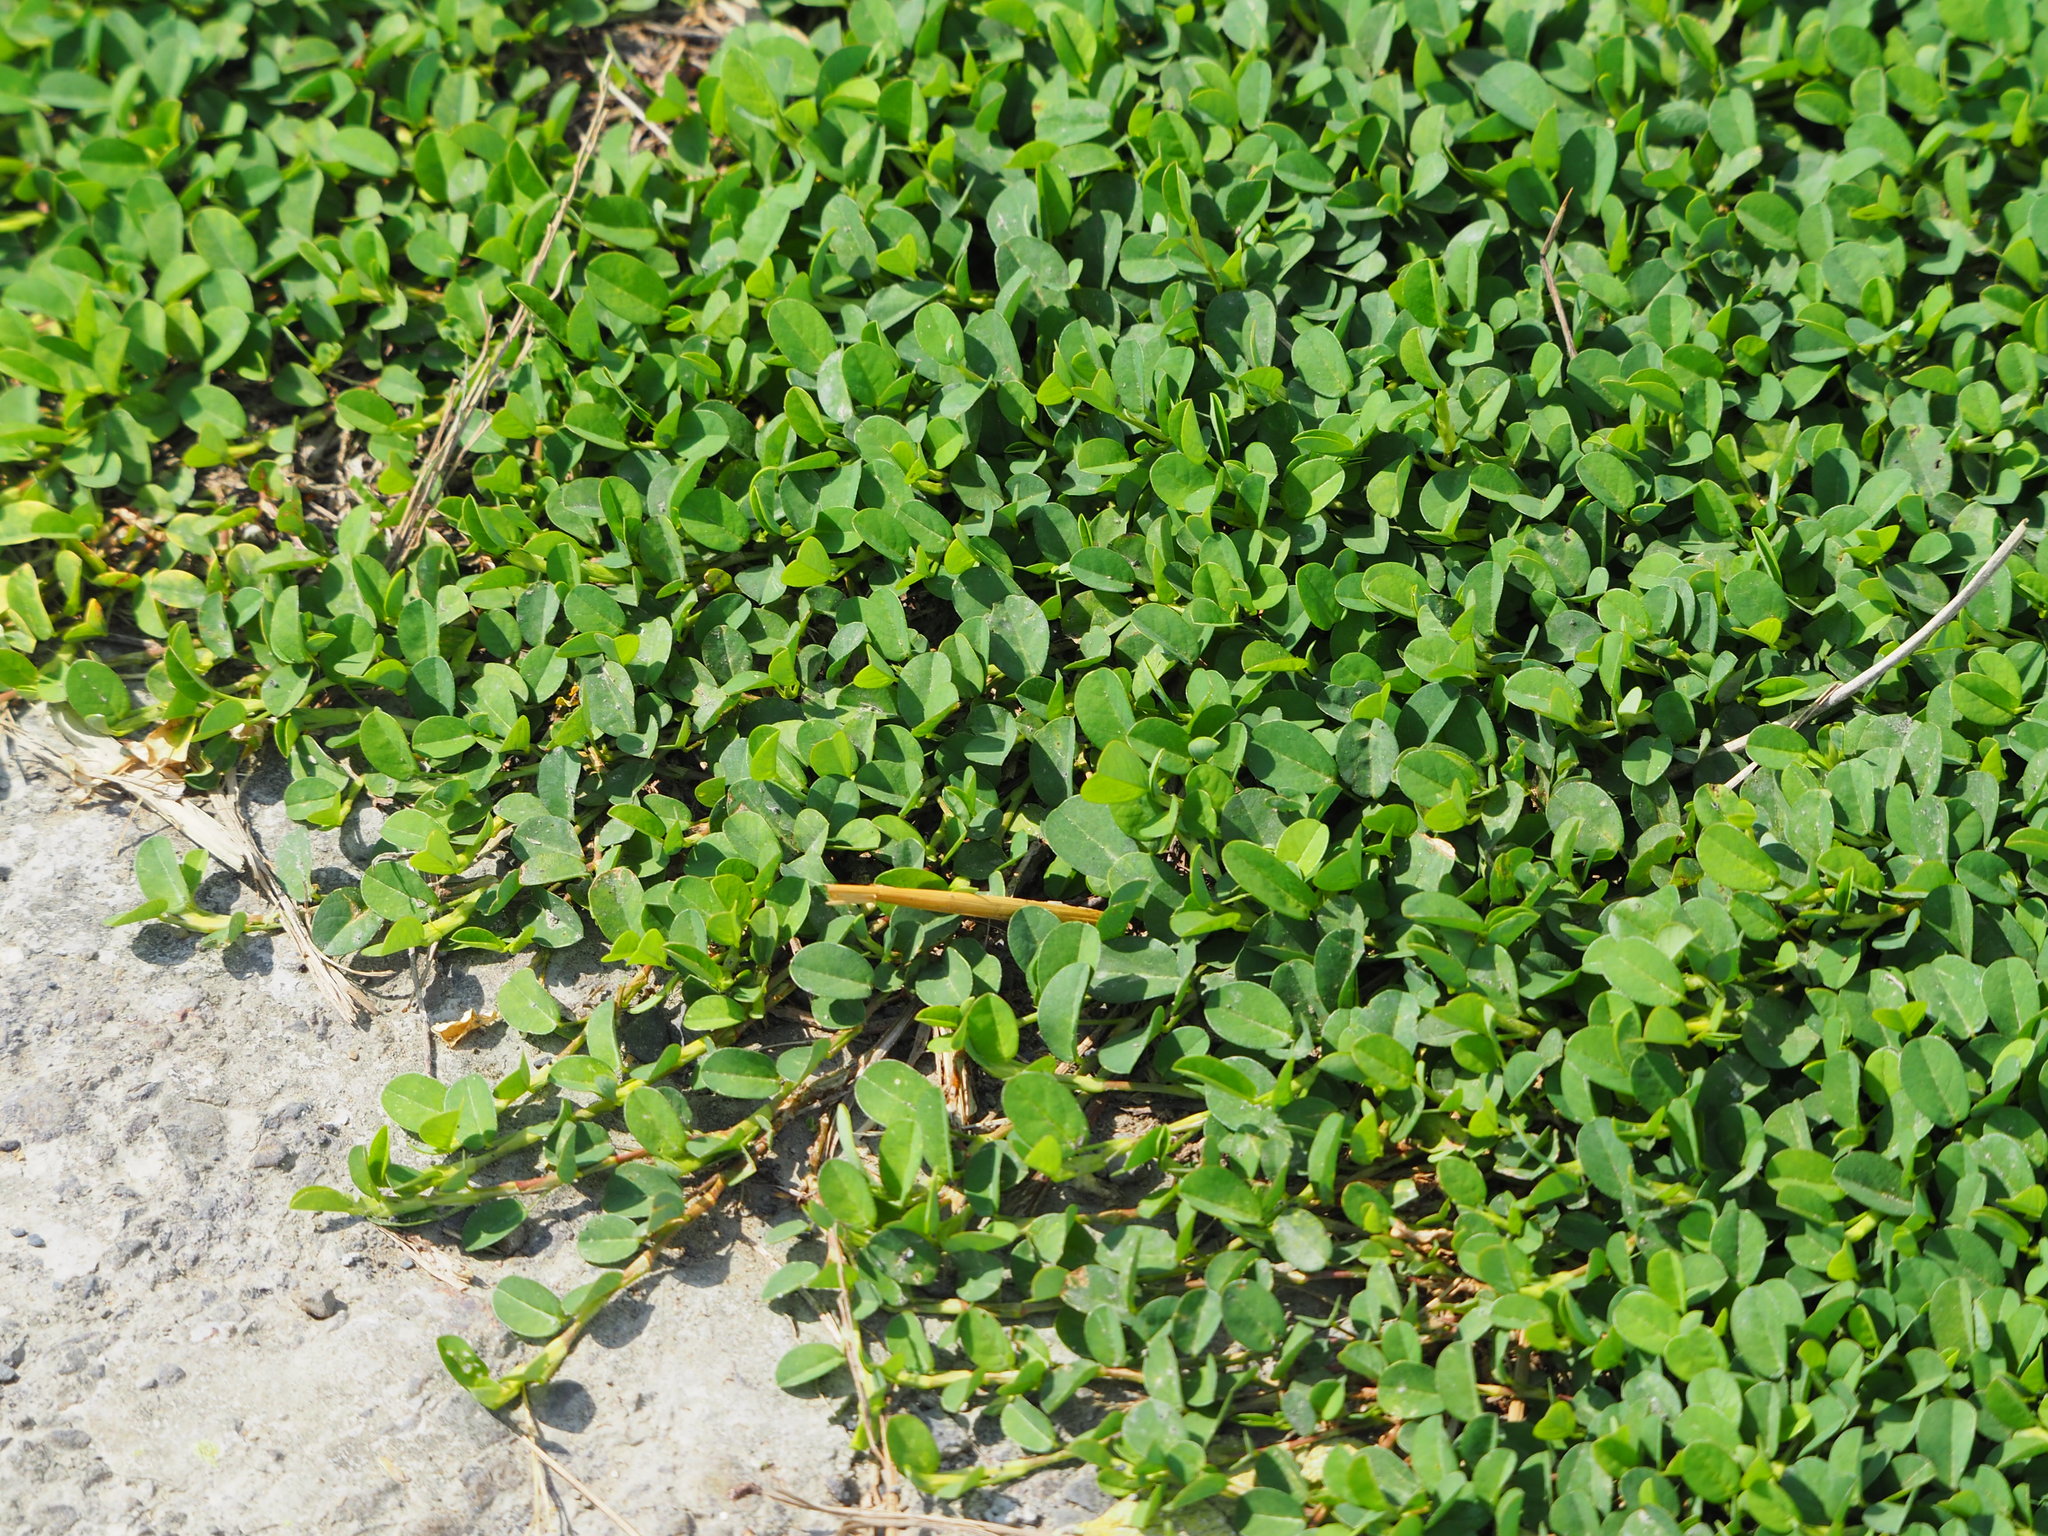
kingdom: Plantae
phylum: Tracheophyta
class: Magnoliopsida
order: Fabales
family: Fabaceae
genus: Alysicarpus
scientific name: Alysicarpus vaginalis
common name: White moneywort
